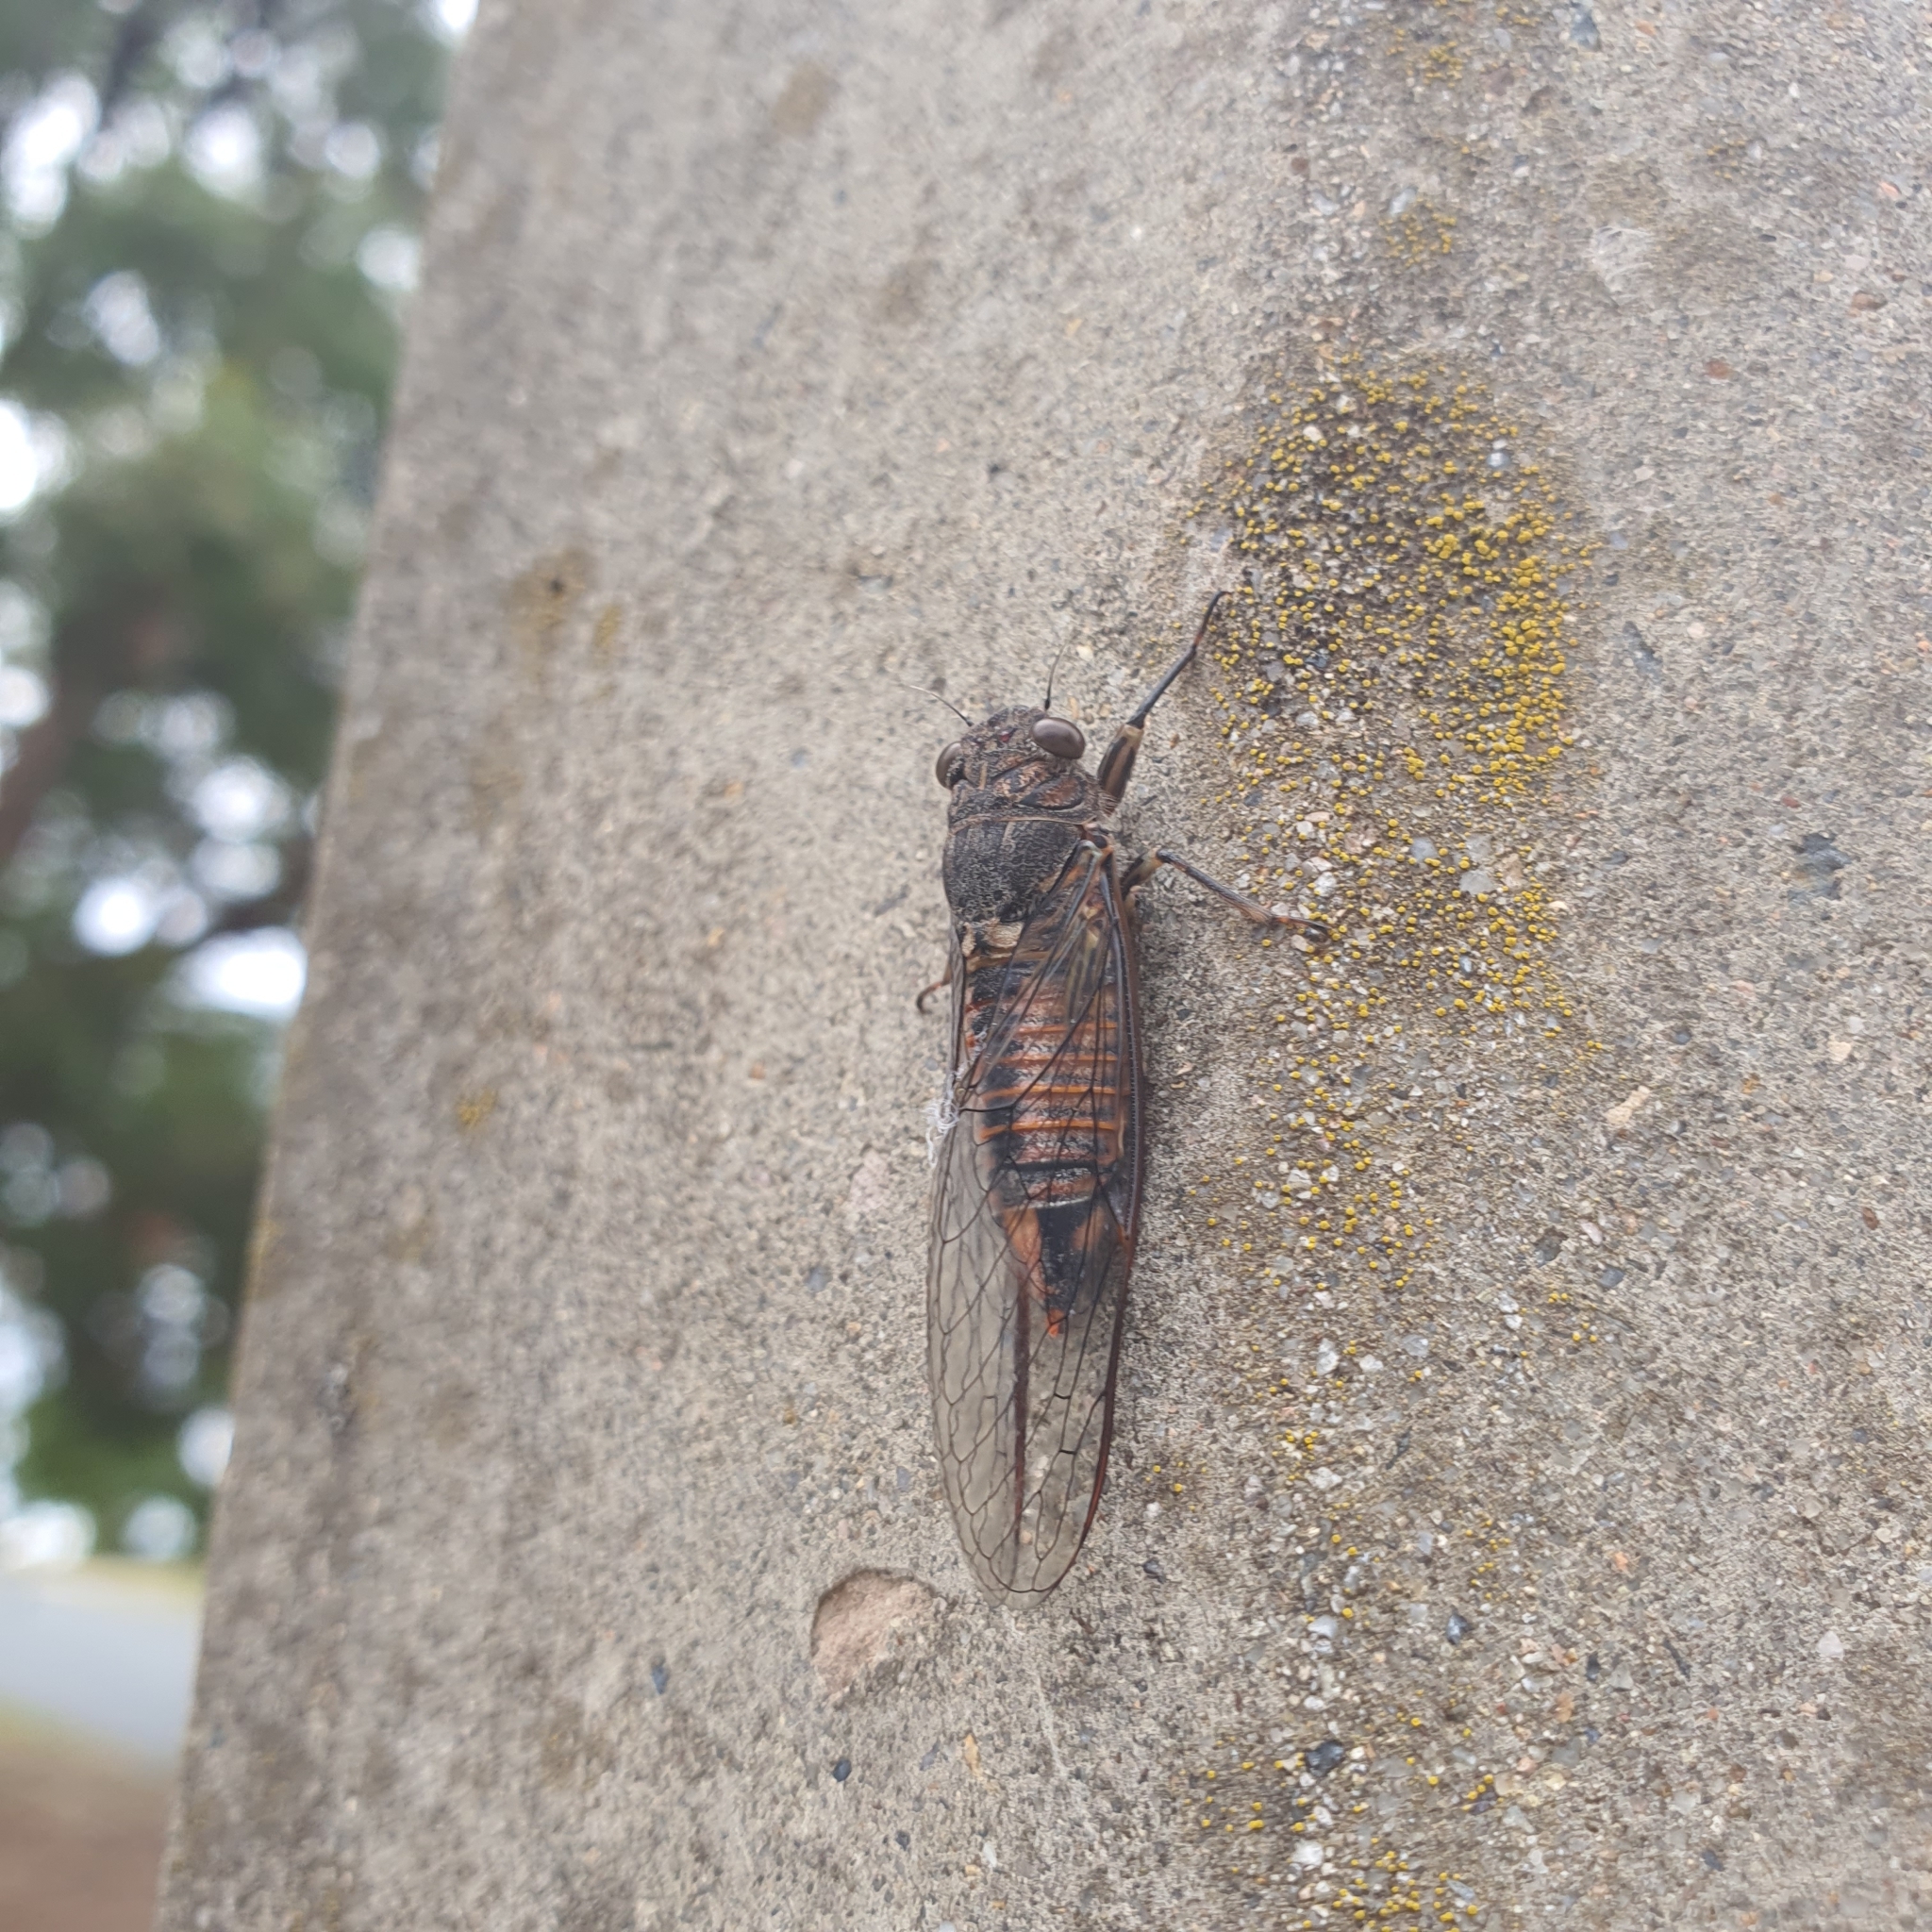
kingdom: Animalia
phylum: Arthropoda
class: Insecta
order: Hemiptera
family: Cicadidae
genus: Yoyetta
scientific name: Yoyetta robertsonae
